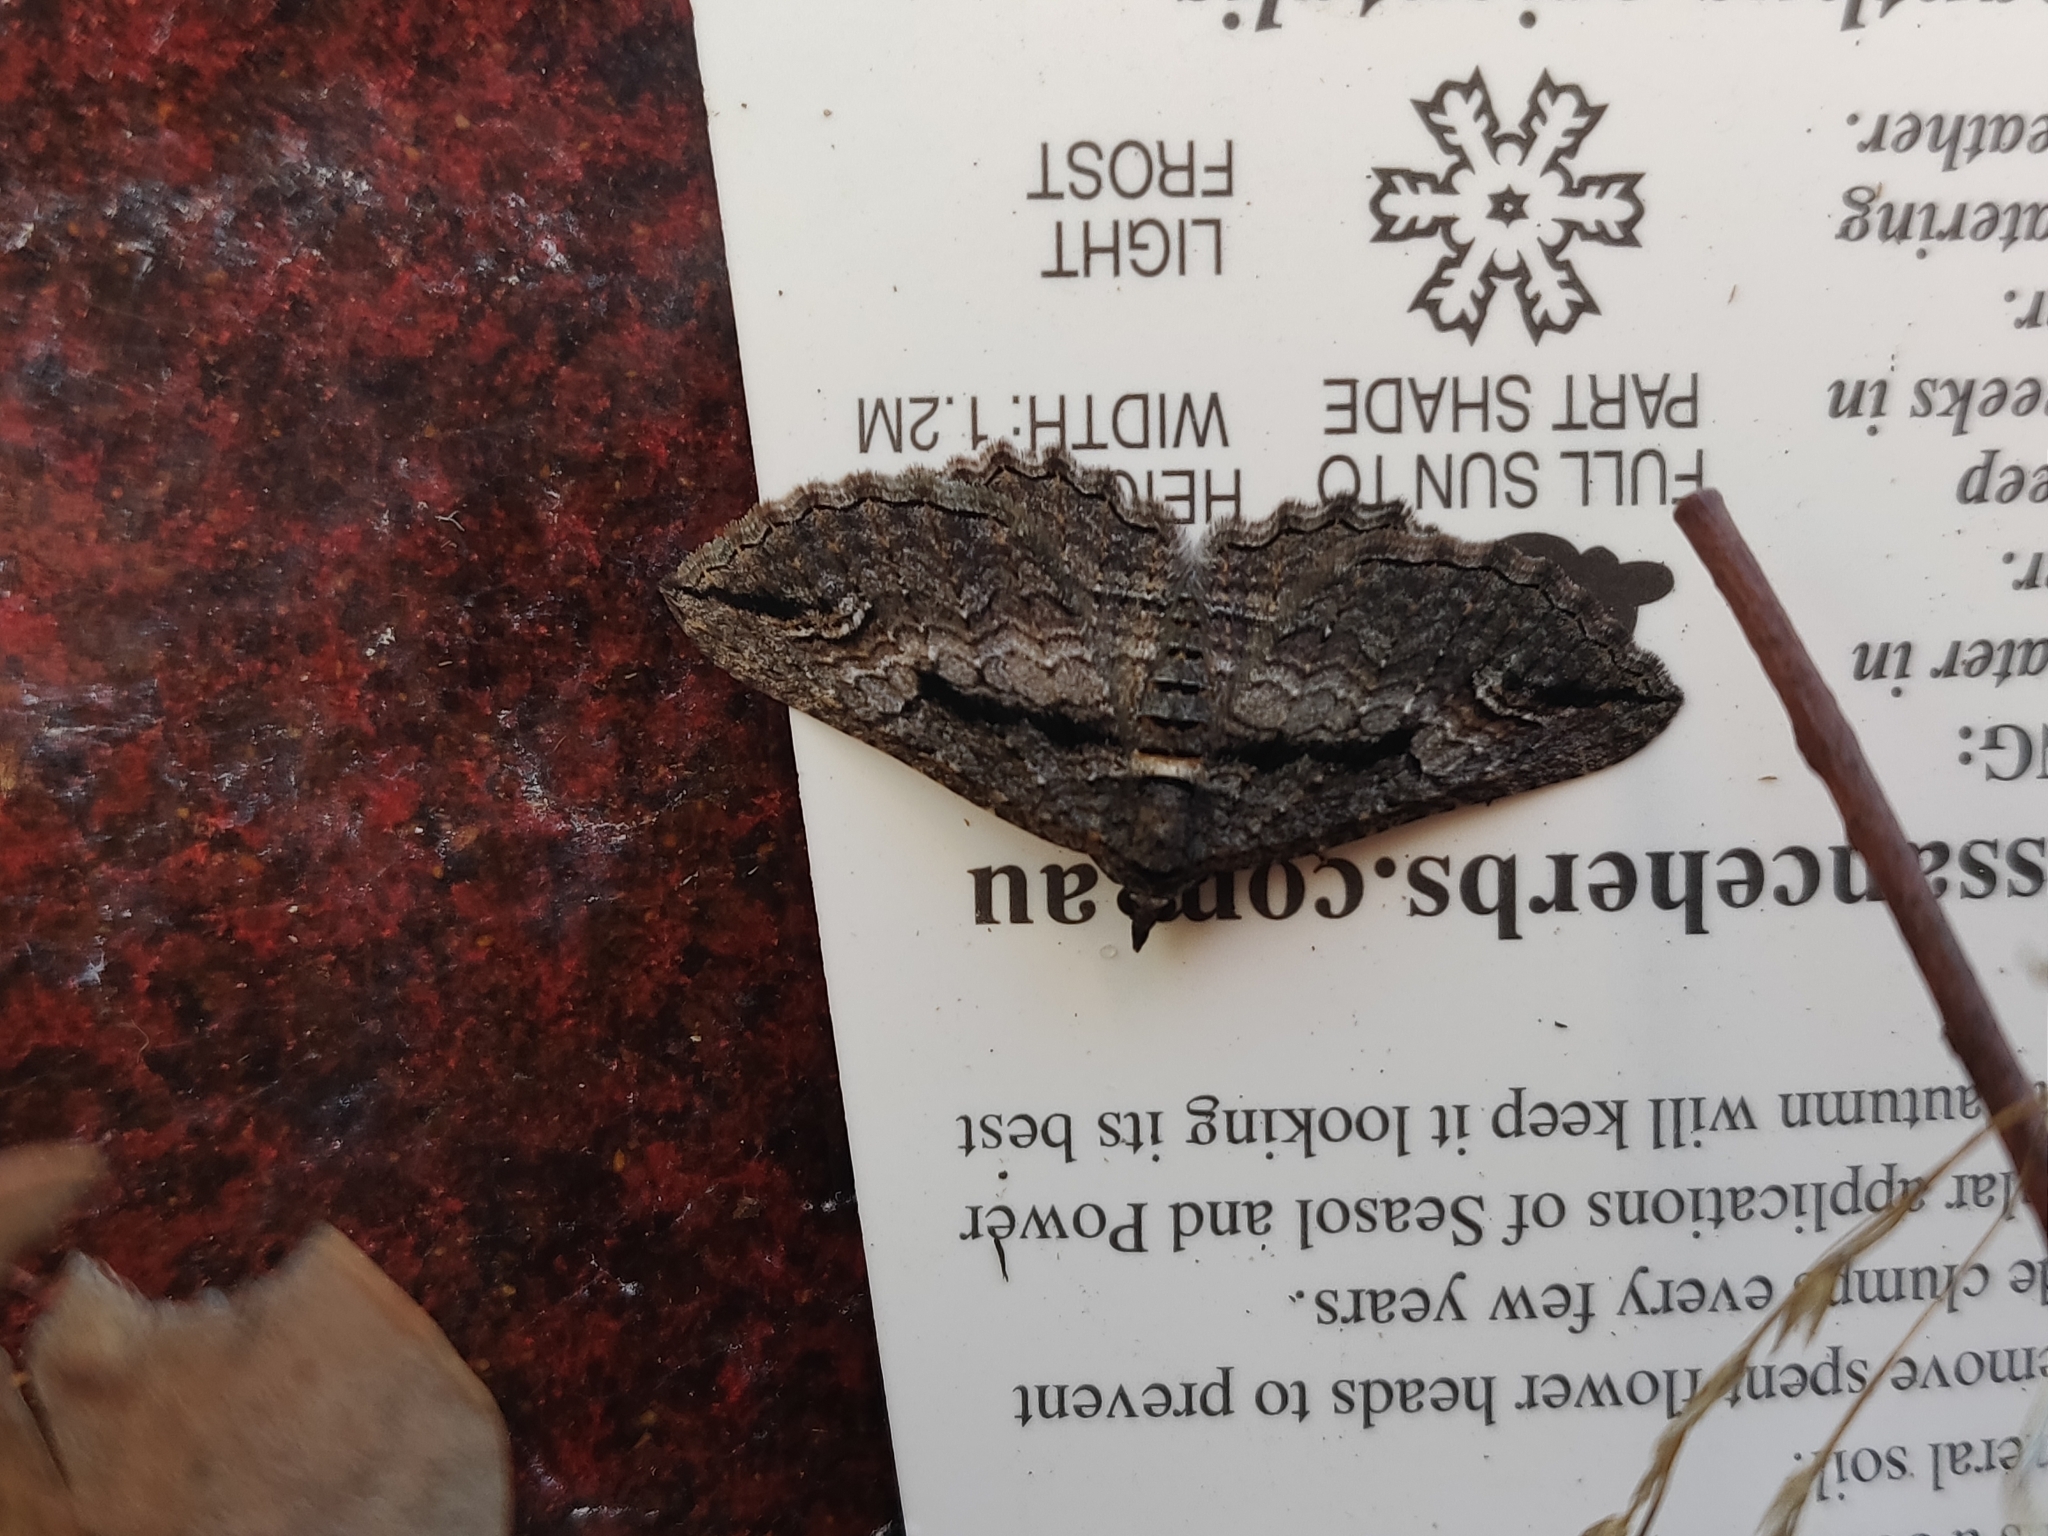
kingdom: Animalia
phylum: Arthropoda
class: Insecta
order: Lepidoptera
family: Geometridae
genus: Chrysolarentia
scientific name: Chrysolarentia plagiocausta
